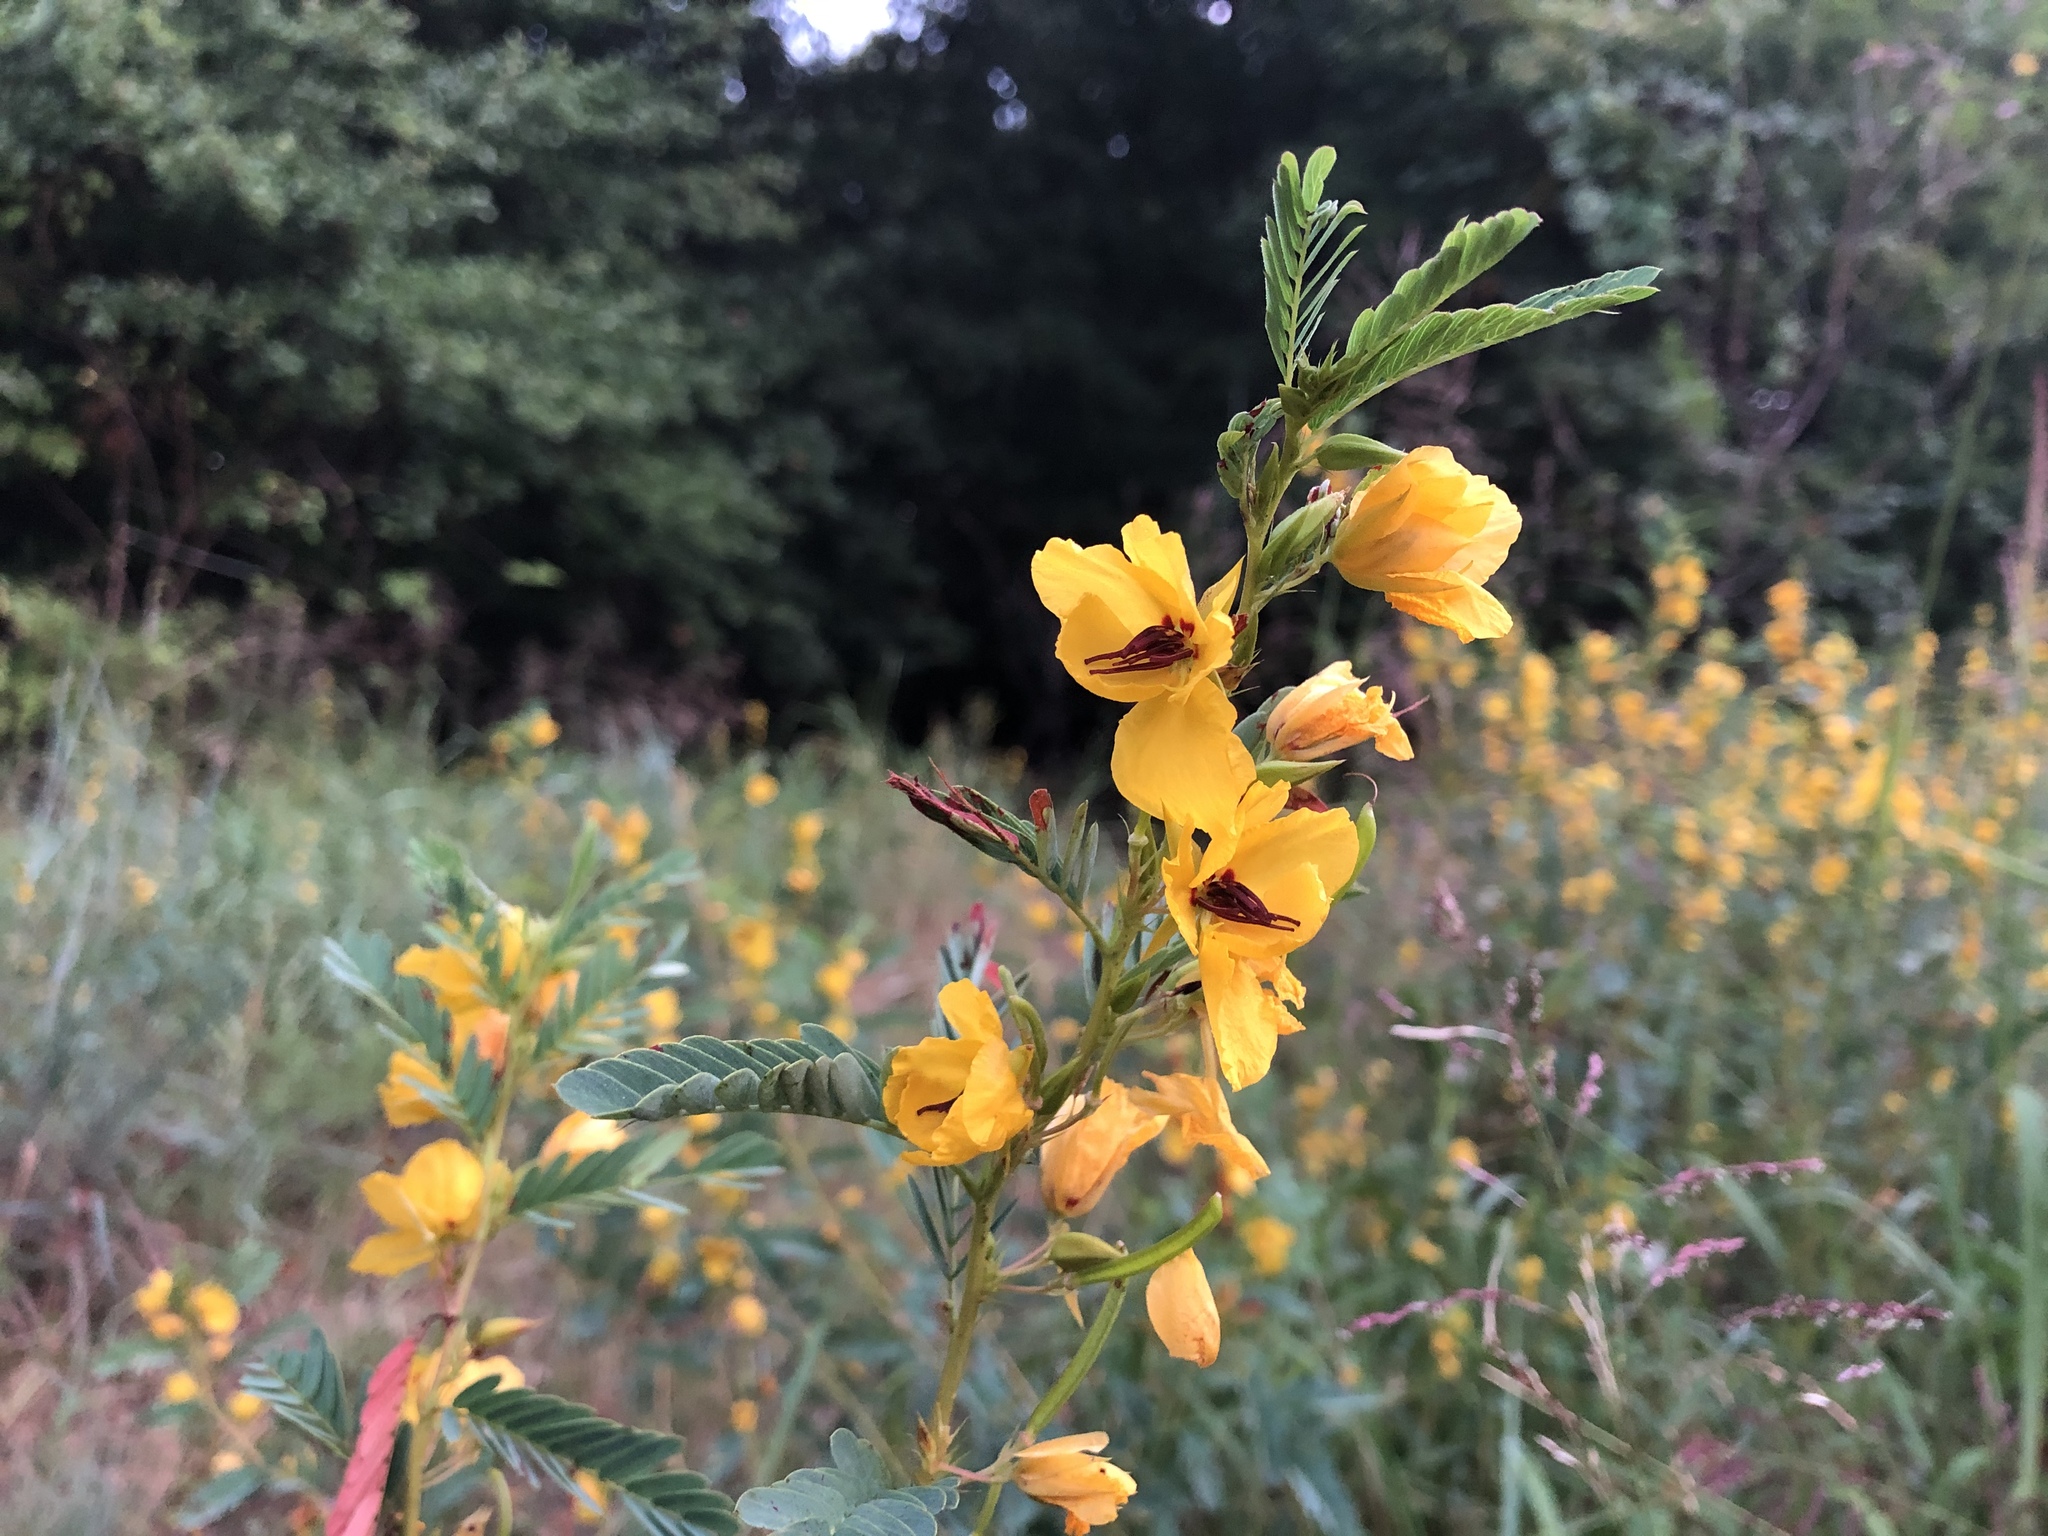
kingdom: Plantae
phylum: Tracheophyta
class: Magnoliopsida
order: Fabales
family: Fabaceae
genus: Chamaecrista
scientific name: Chamaecrista fasciculata
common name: Golden cassia
